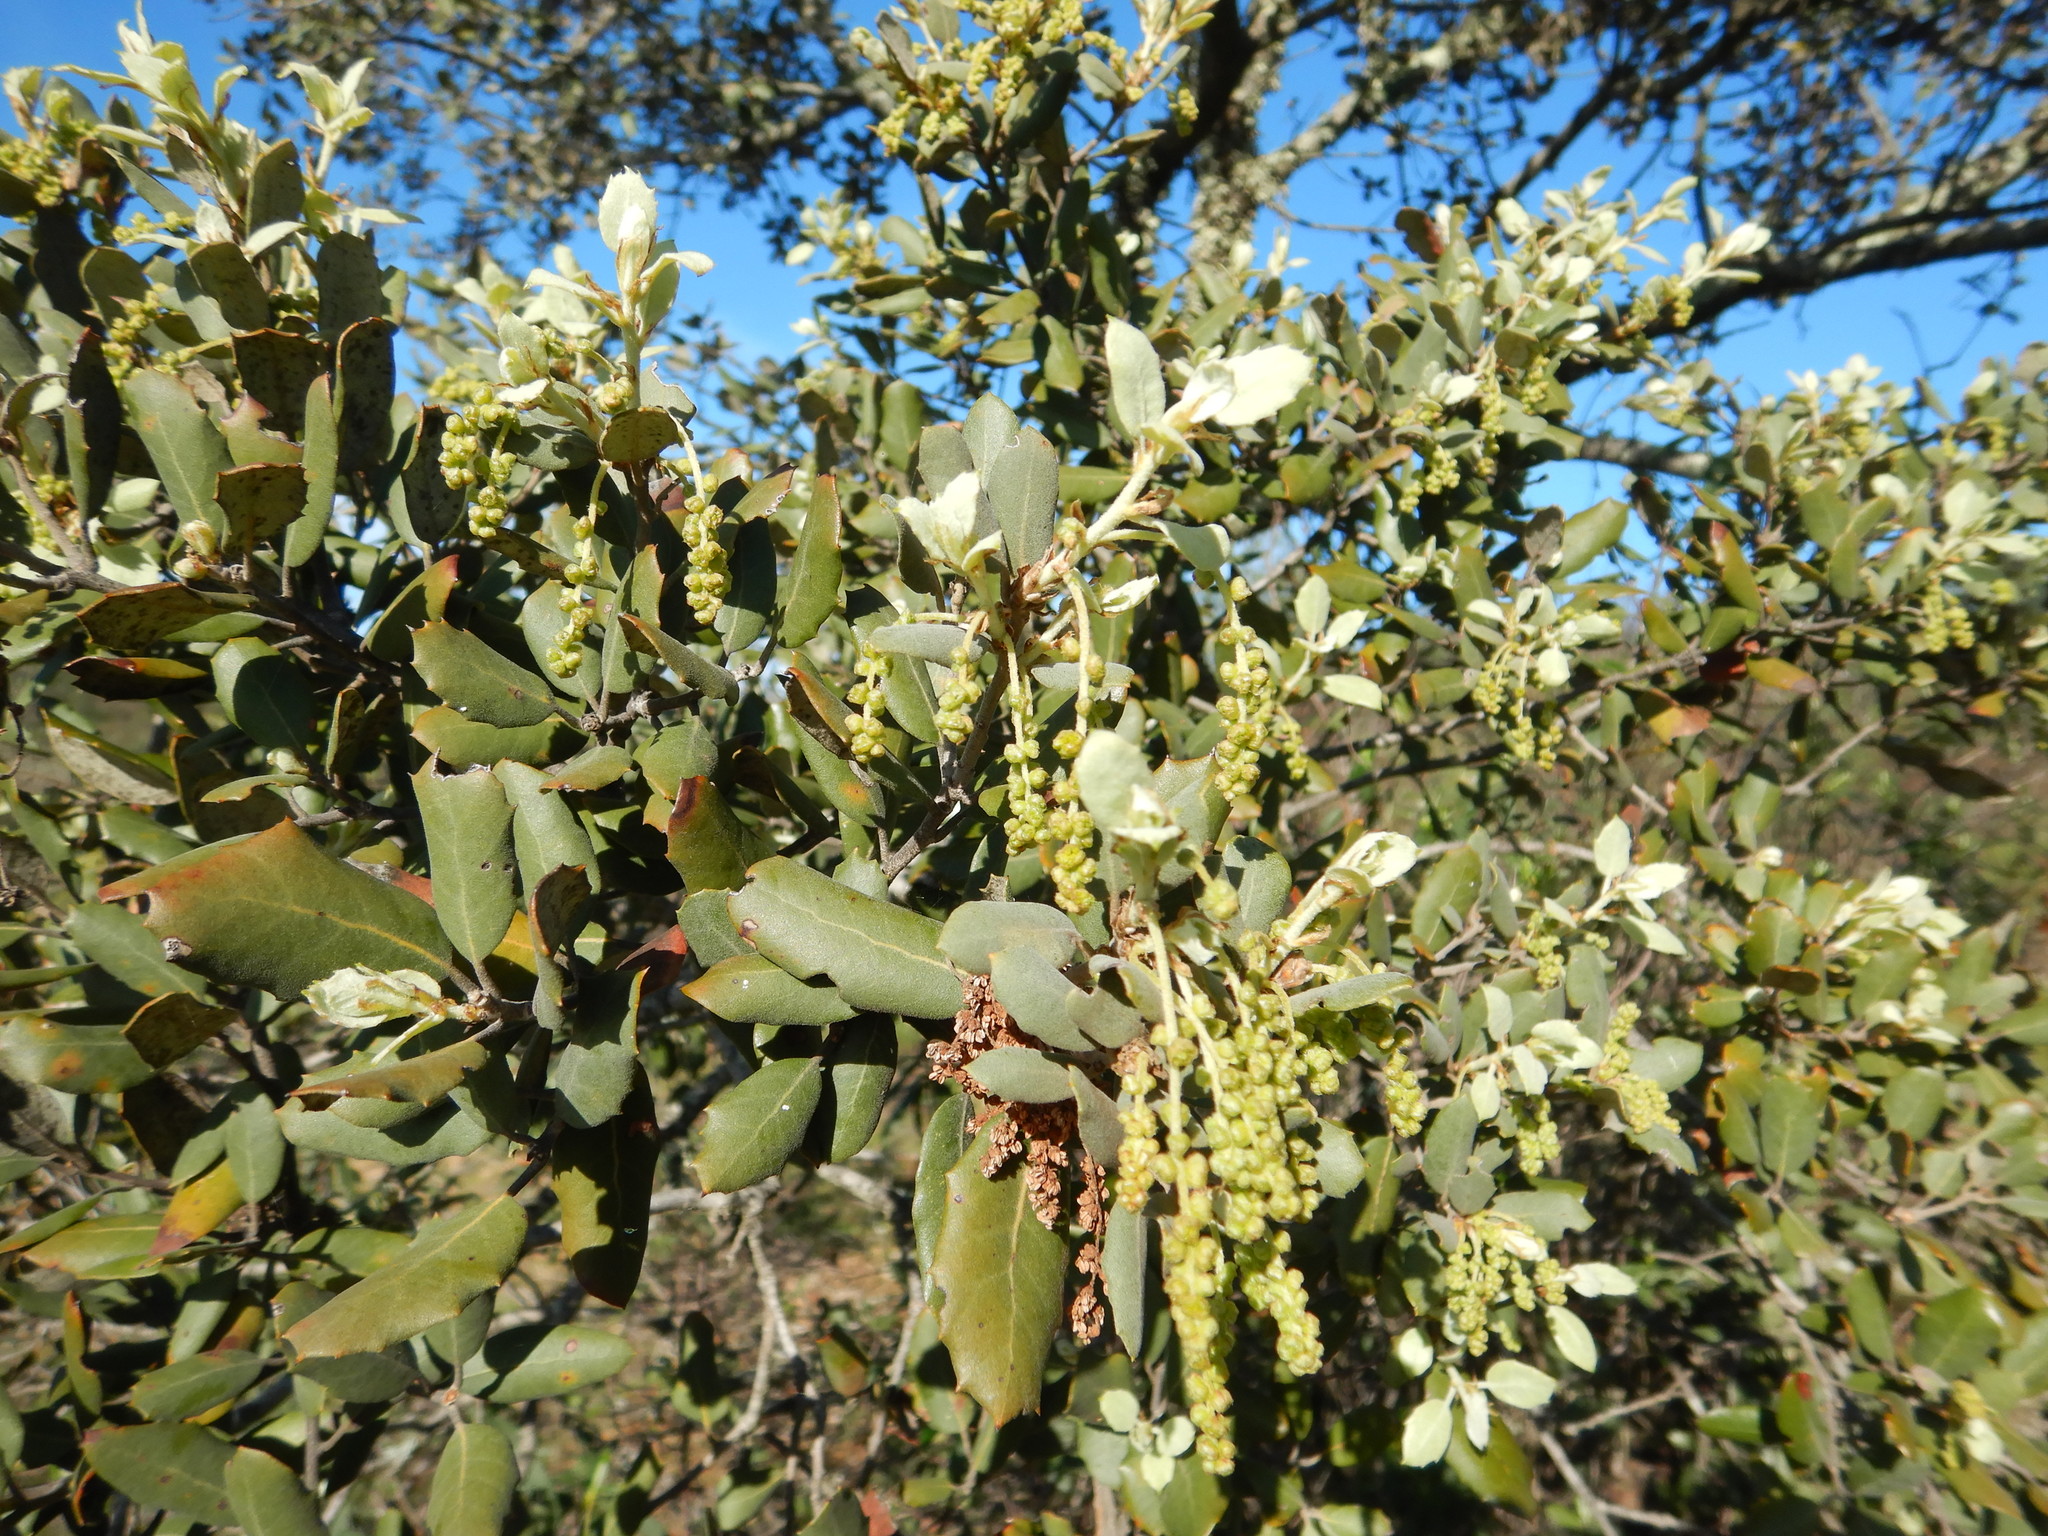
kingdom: Plantae
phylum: Tracheophyta
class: Magnoliopsida
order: Fagales
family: Fagaceae
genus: Quercus
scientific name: Quercus rotundifolia
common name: Holm oak
